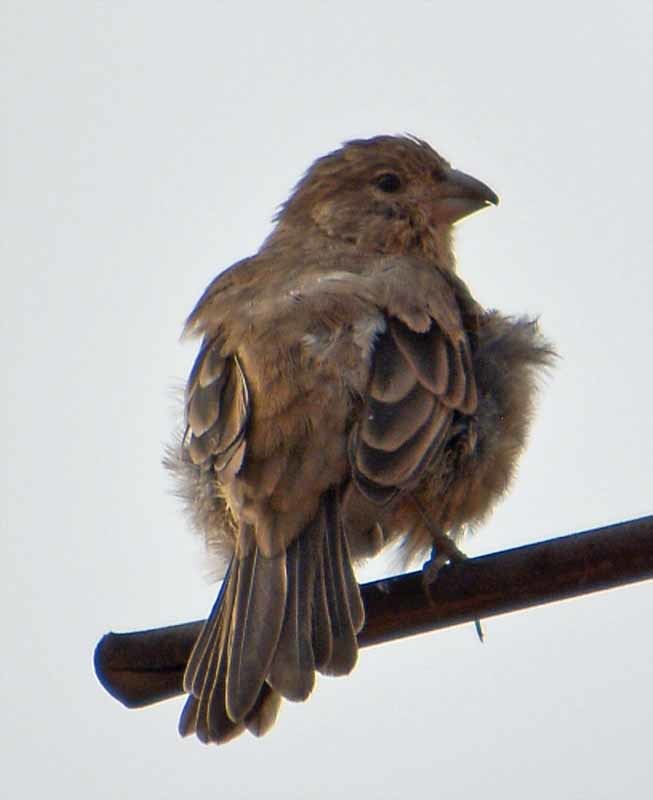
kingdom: Animalia
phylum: Chordata
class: Aves
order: Passeriformes
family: Fringillidae
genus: Haemorhous
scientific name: Haemorhous mexicanus
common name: House finch
